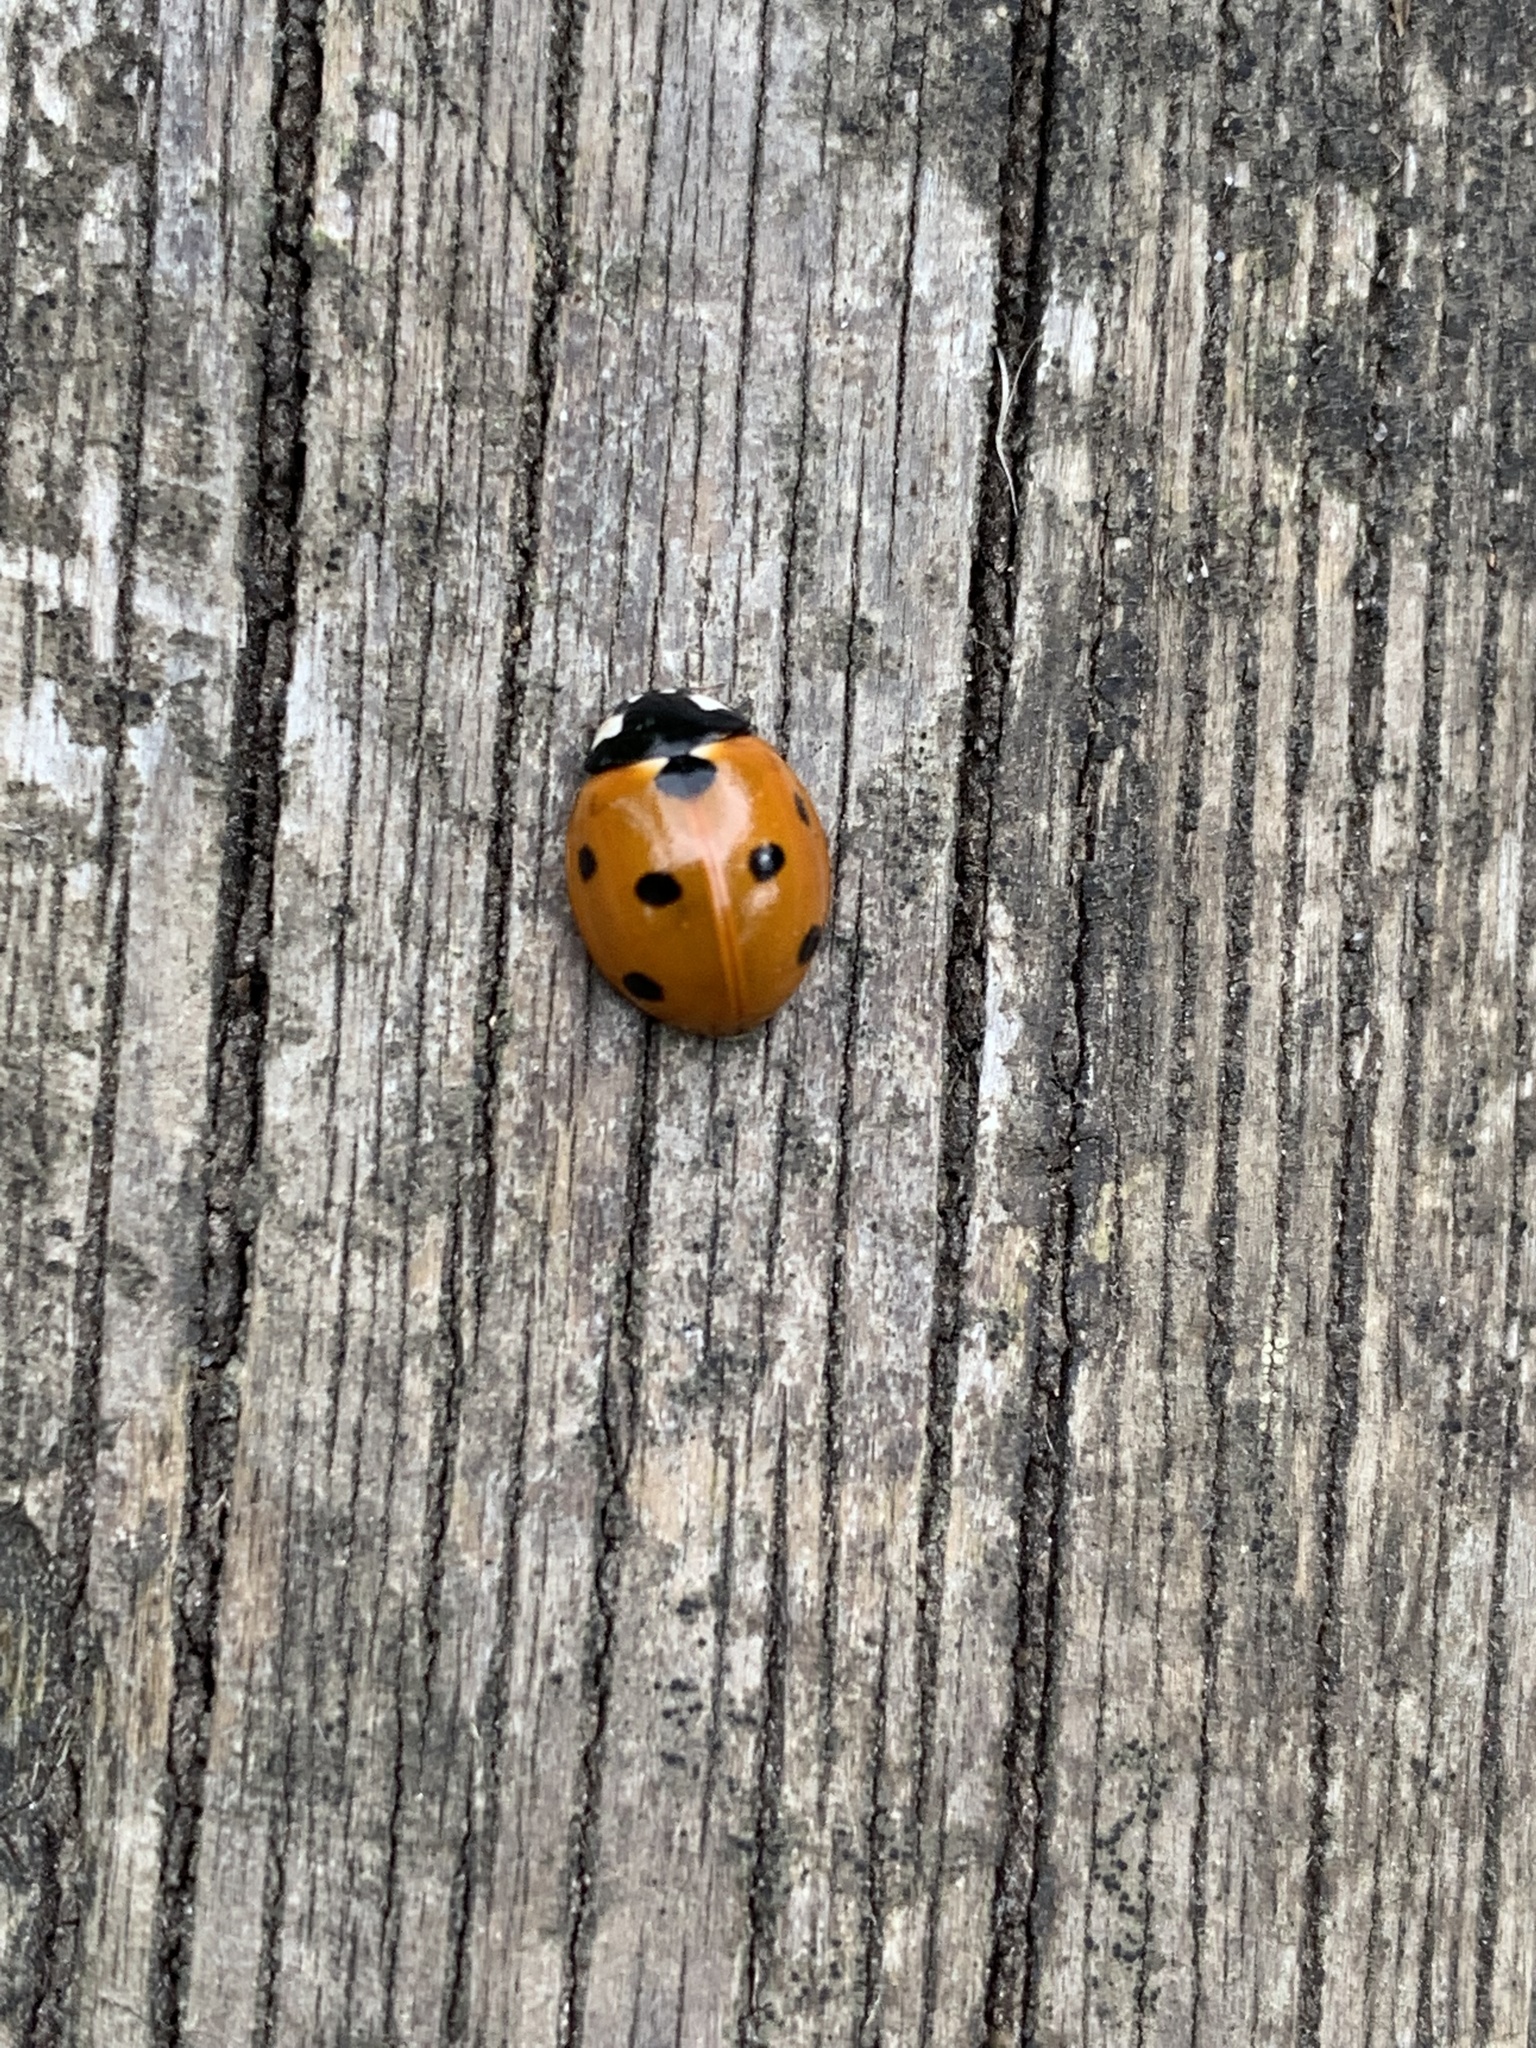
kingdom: Animalia
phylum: Arthropoda
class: Insecta
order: Coleoptera
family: Coccinellidae
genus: Coccinella
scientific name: Coccinella septempunctata
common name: Sevenspotted lady beetle
